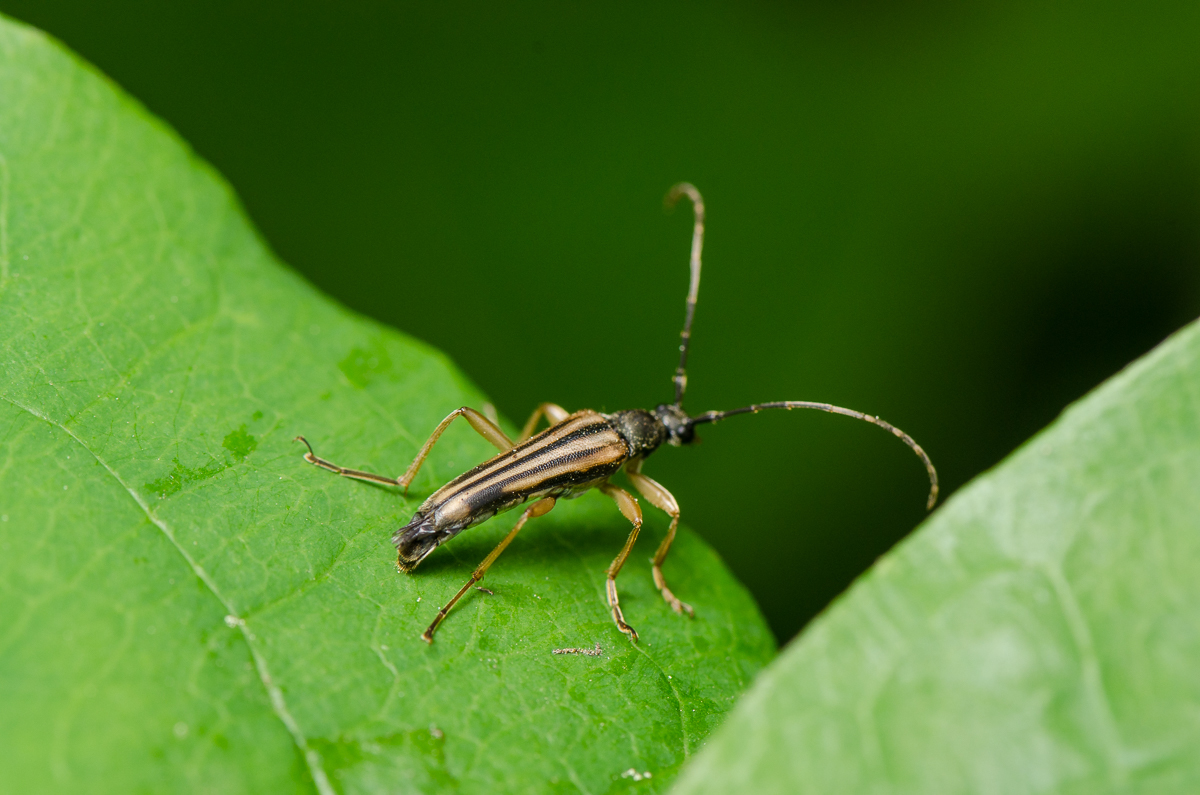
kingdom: Animalia
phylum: Arthropoda
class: Insecta
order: Coleoptera
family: Cerambycidae
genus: Analeptura
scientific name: Analeptura lineola
